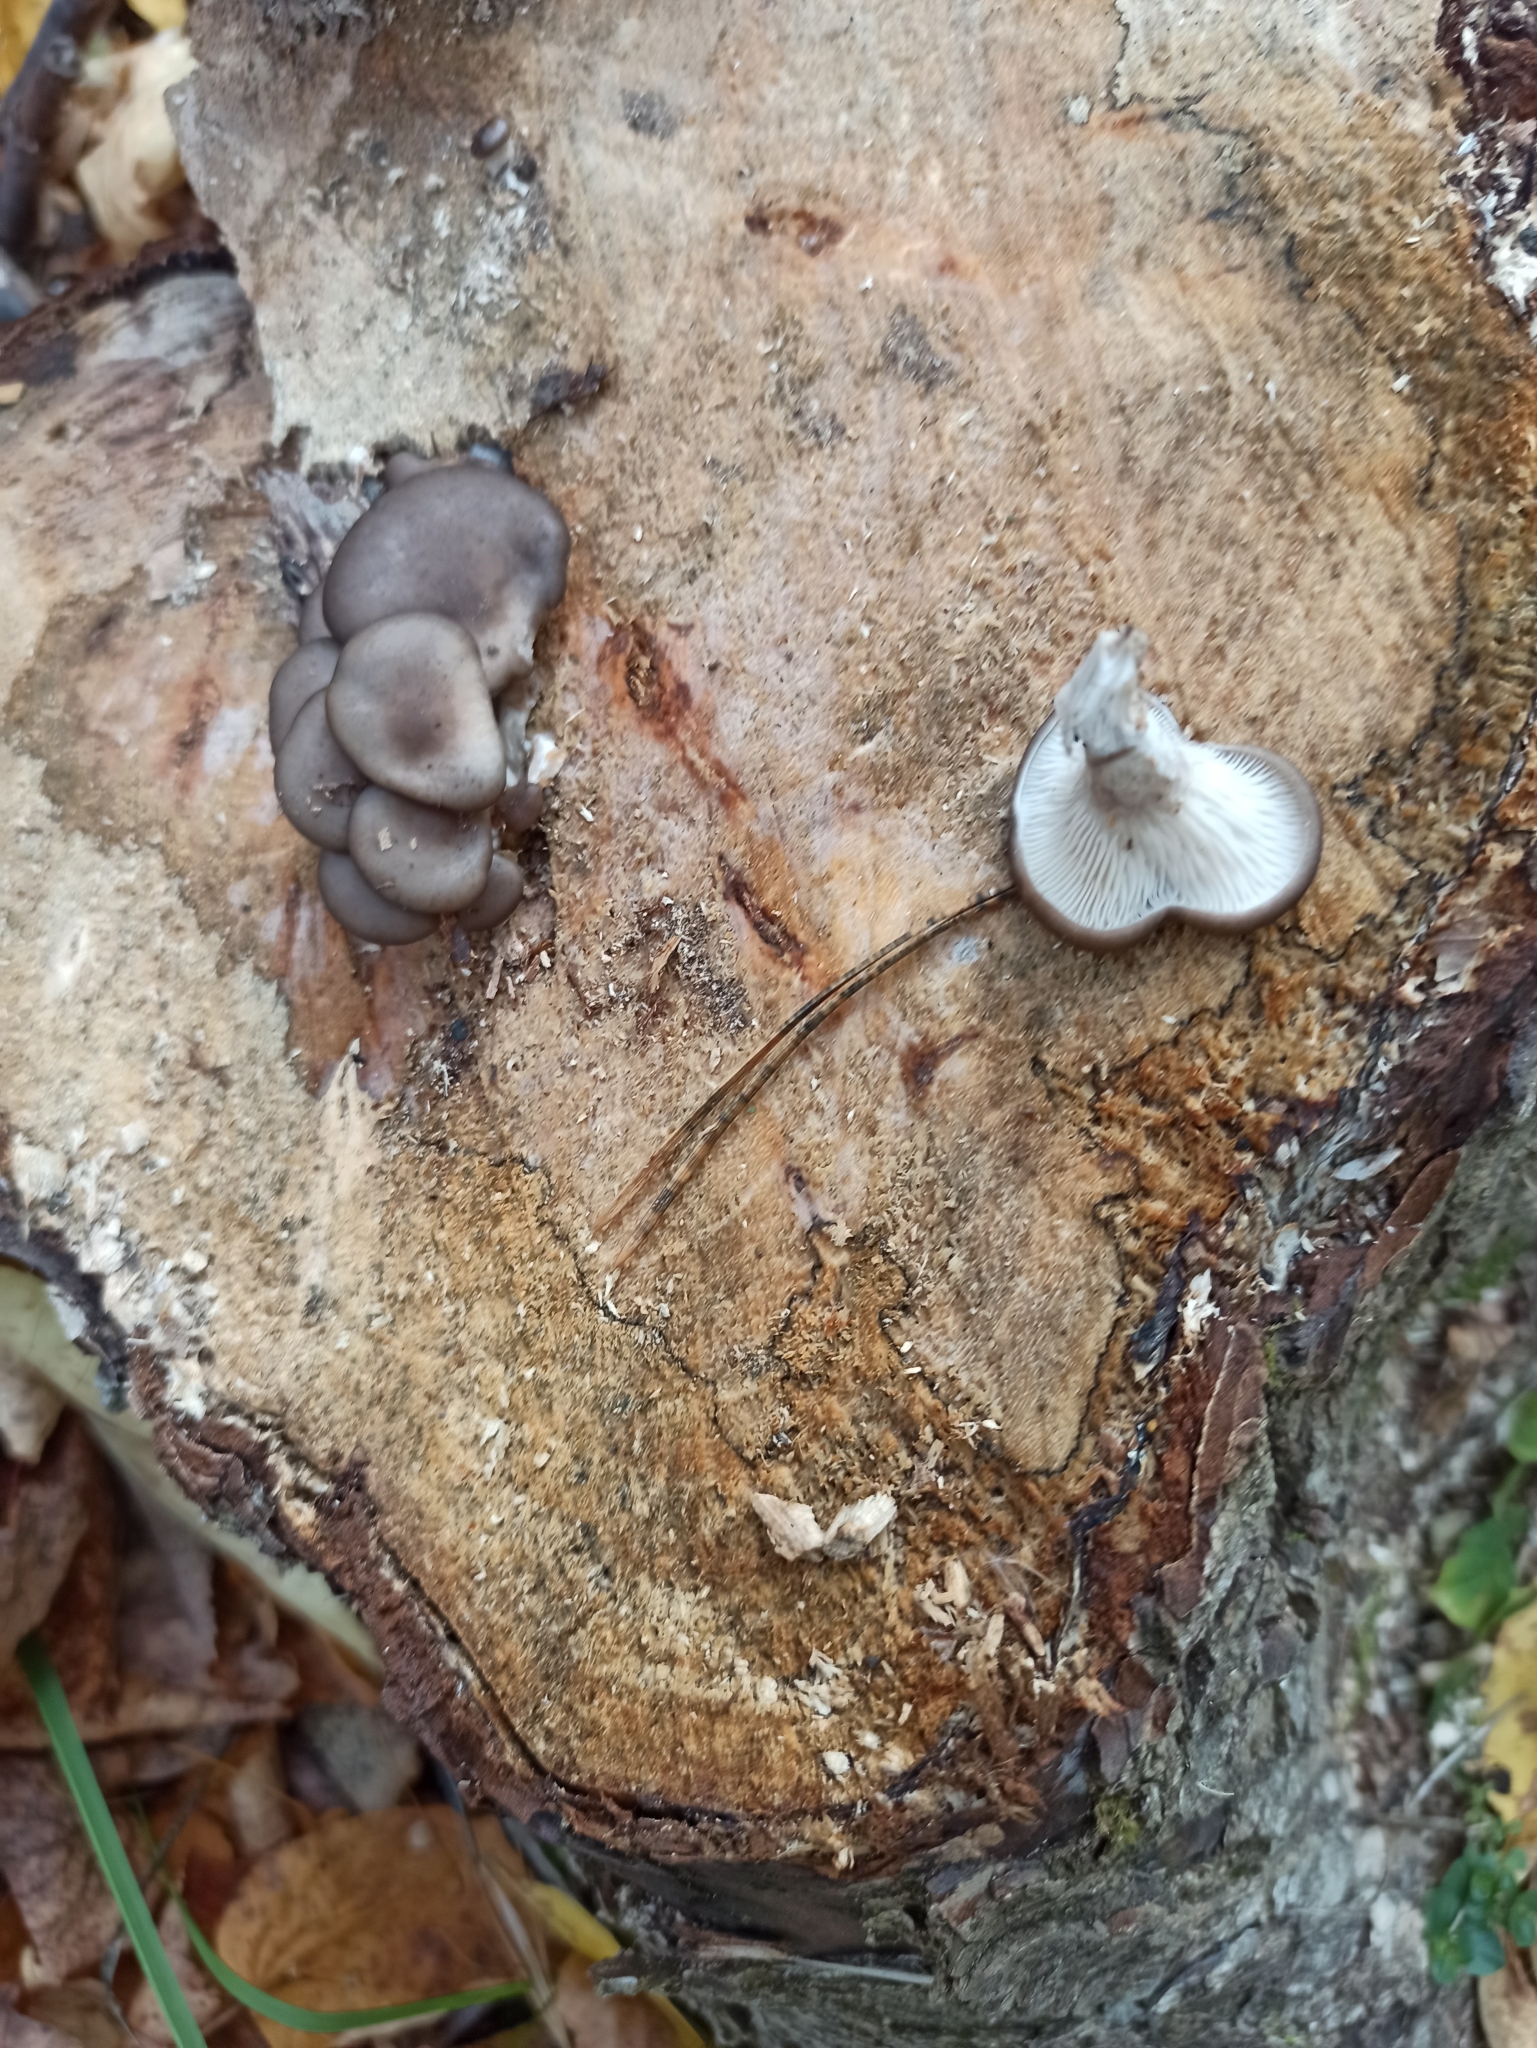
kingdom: Fungi
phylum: Basidiomycota
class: Agaricomycetes
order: Agaricales
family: Pleurotaceae
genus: Pleurotus
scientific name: Pleurotus ostreatus
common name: Oyster mushroom
